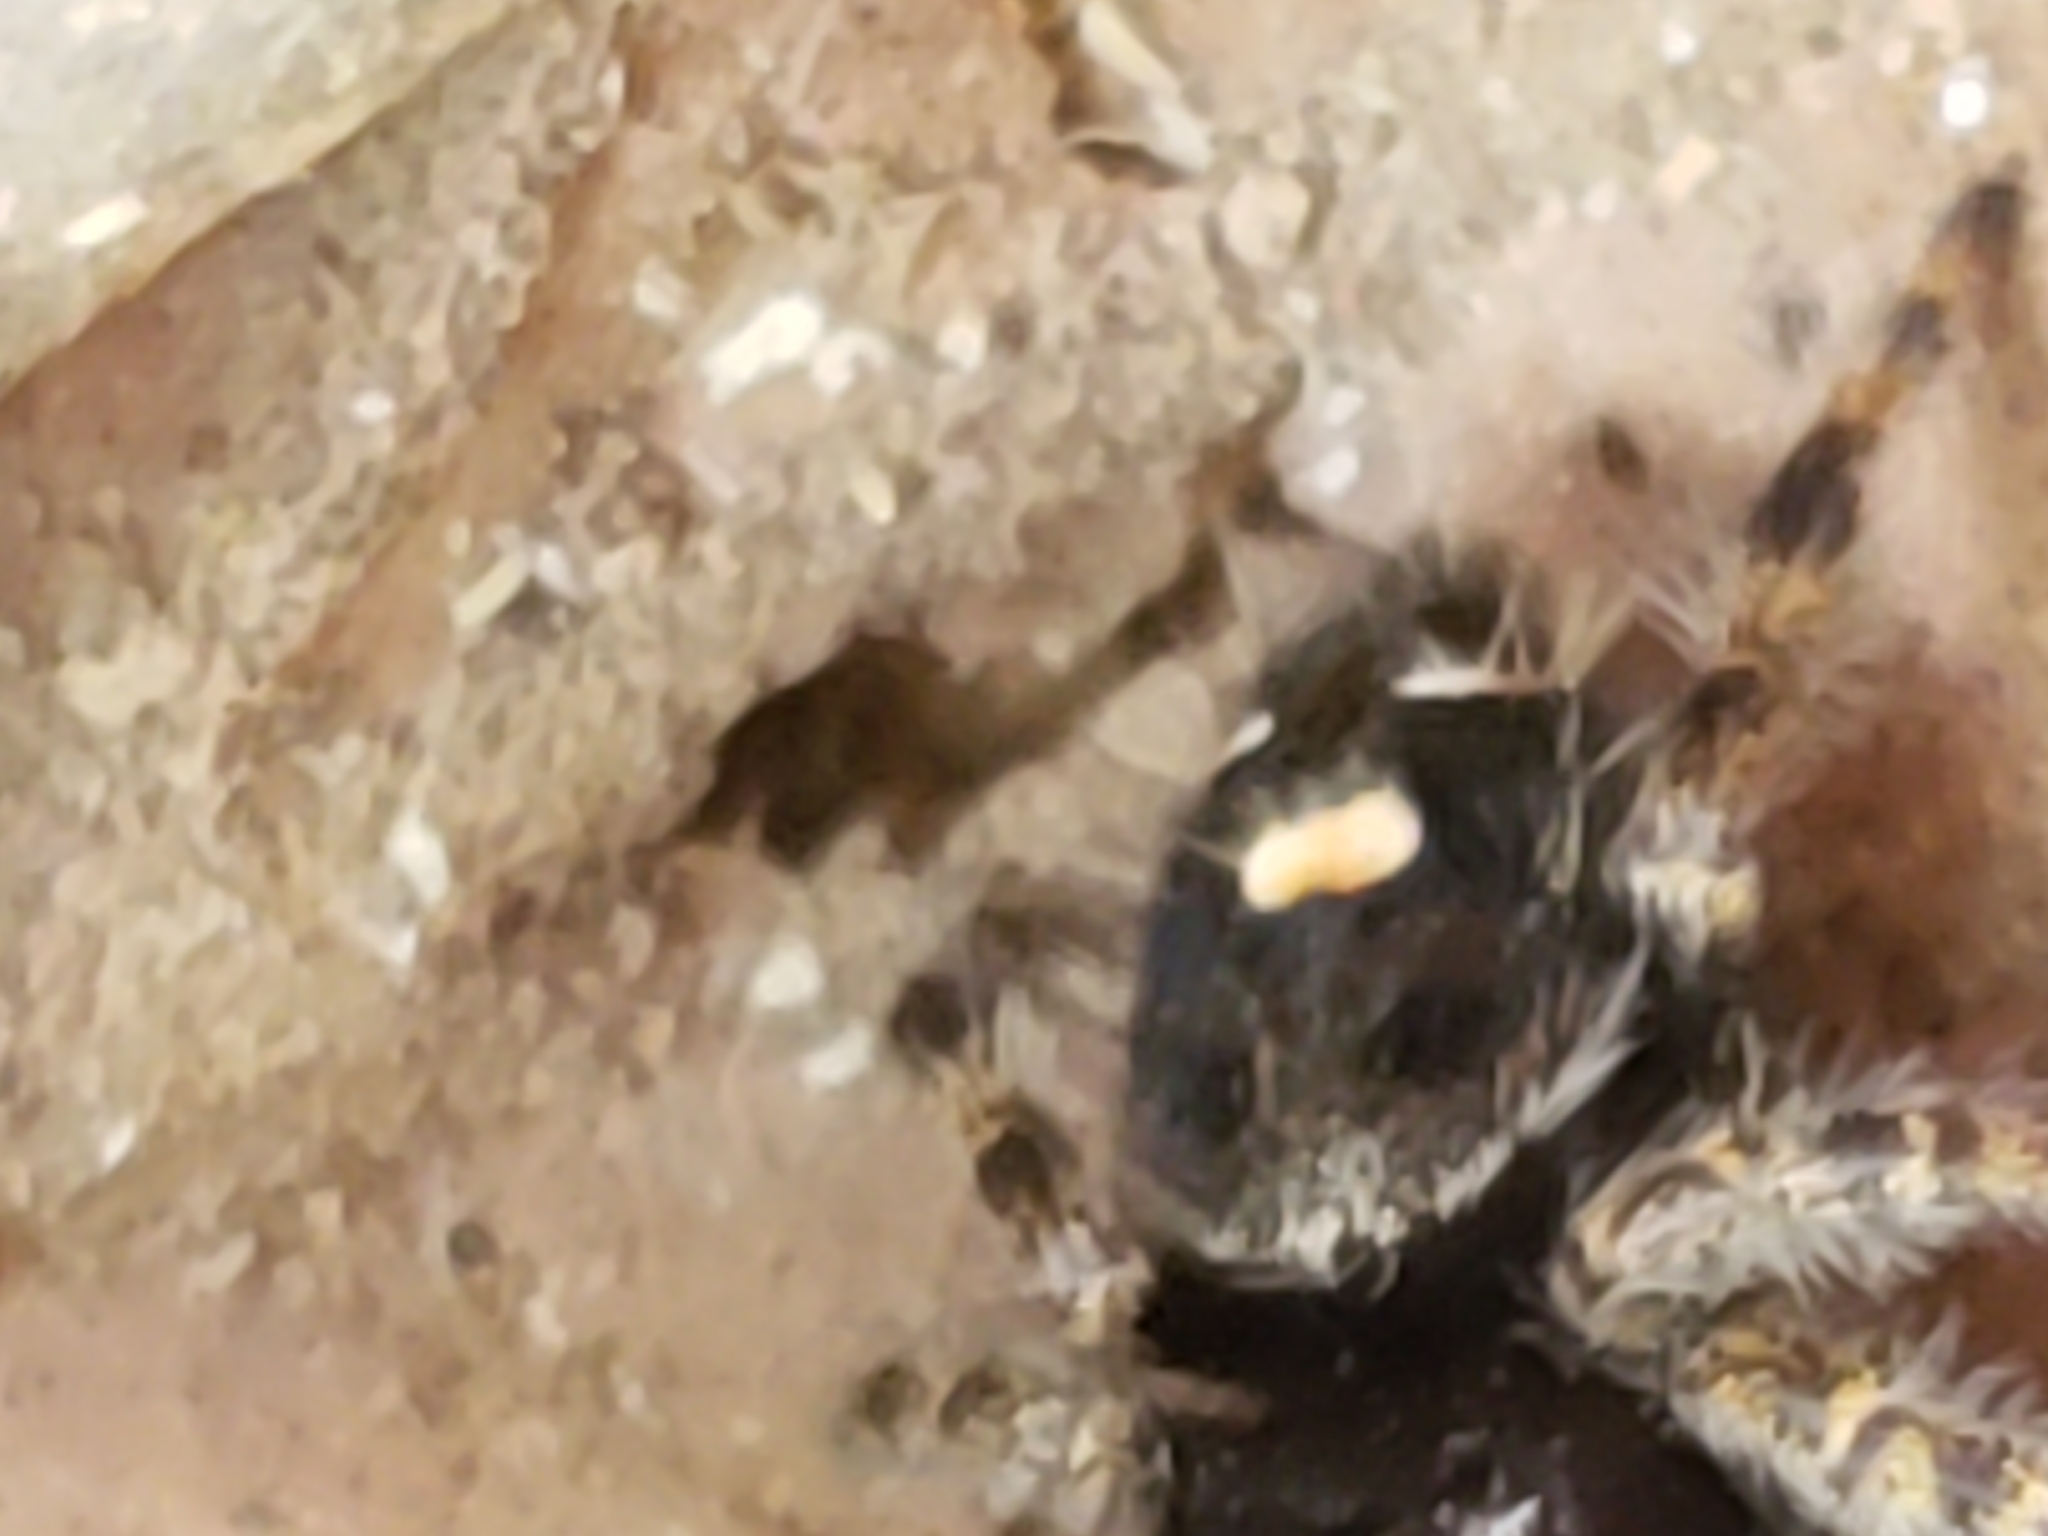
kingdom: Animalia
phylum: Arthropoda
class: Arachnida
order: Araneae
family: Salticidae
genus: Phidippus
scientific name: Phidippus audax
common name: Bold jumper
